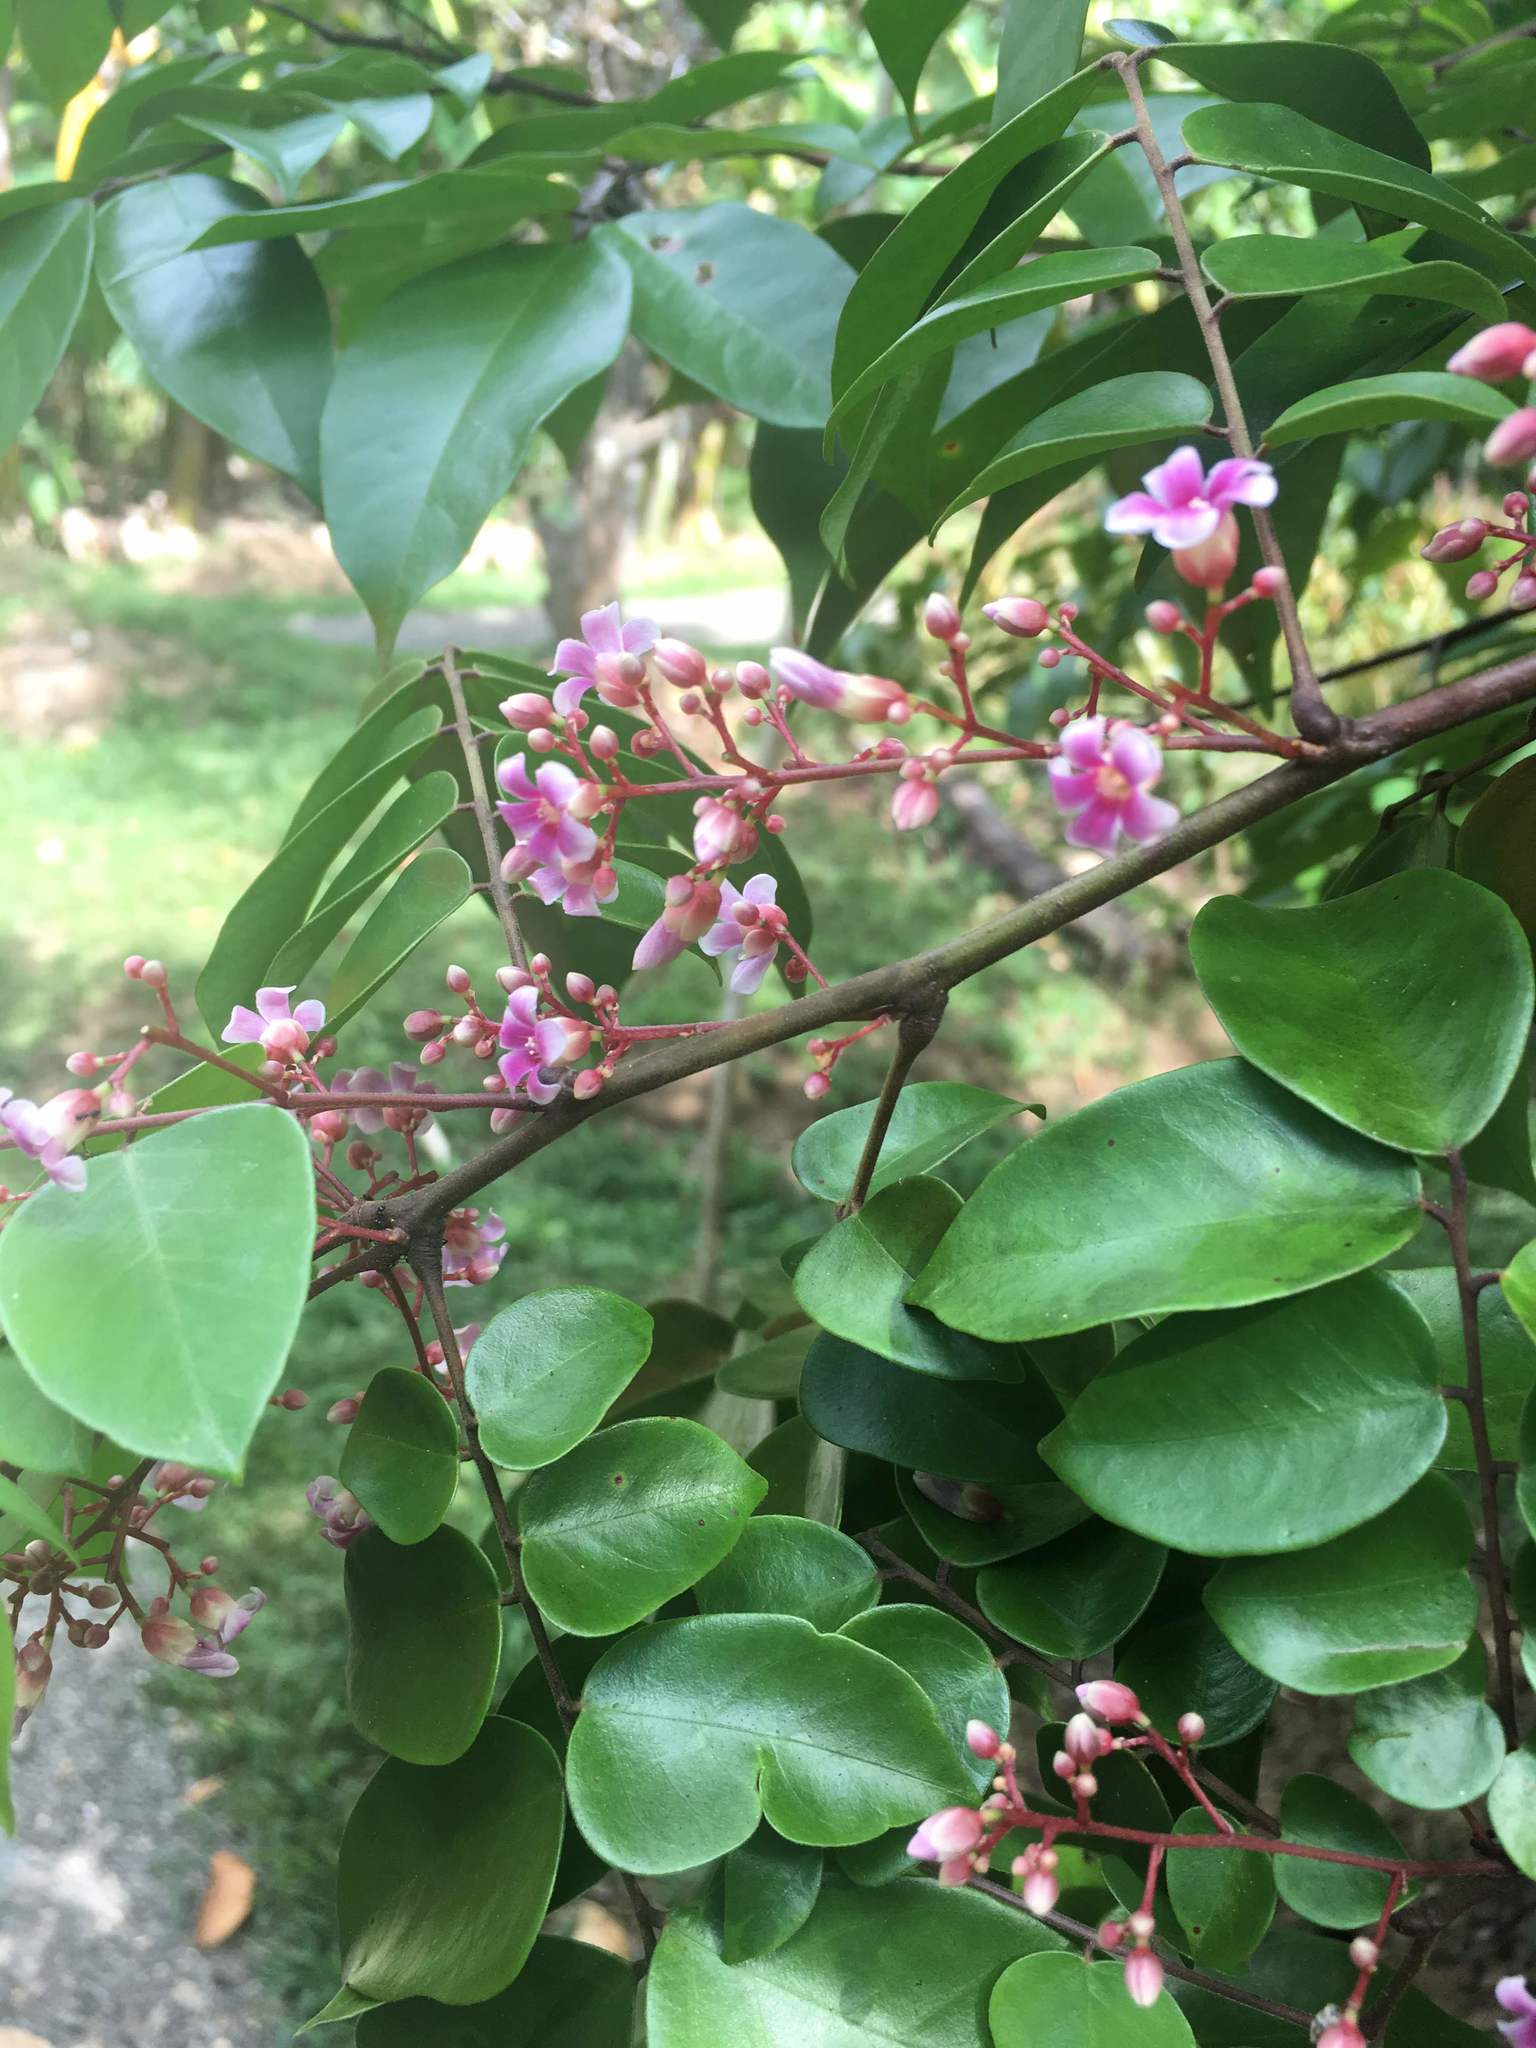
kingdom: Plantae
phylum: Tracheophyta
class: Magnoliopsida
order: Oxalidales
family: Oxalidaceae
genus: Averrhoa
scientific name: Averrhoa carambola
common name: Blimbing
